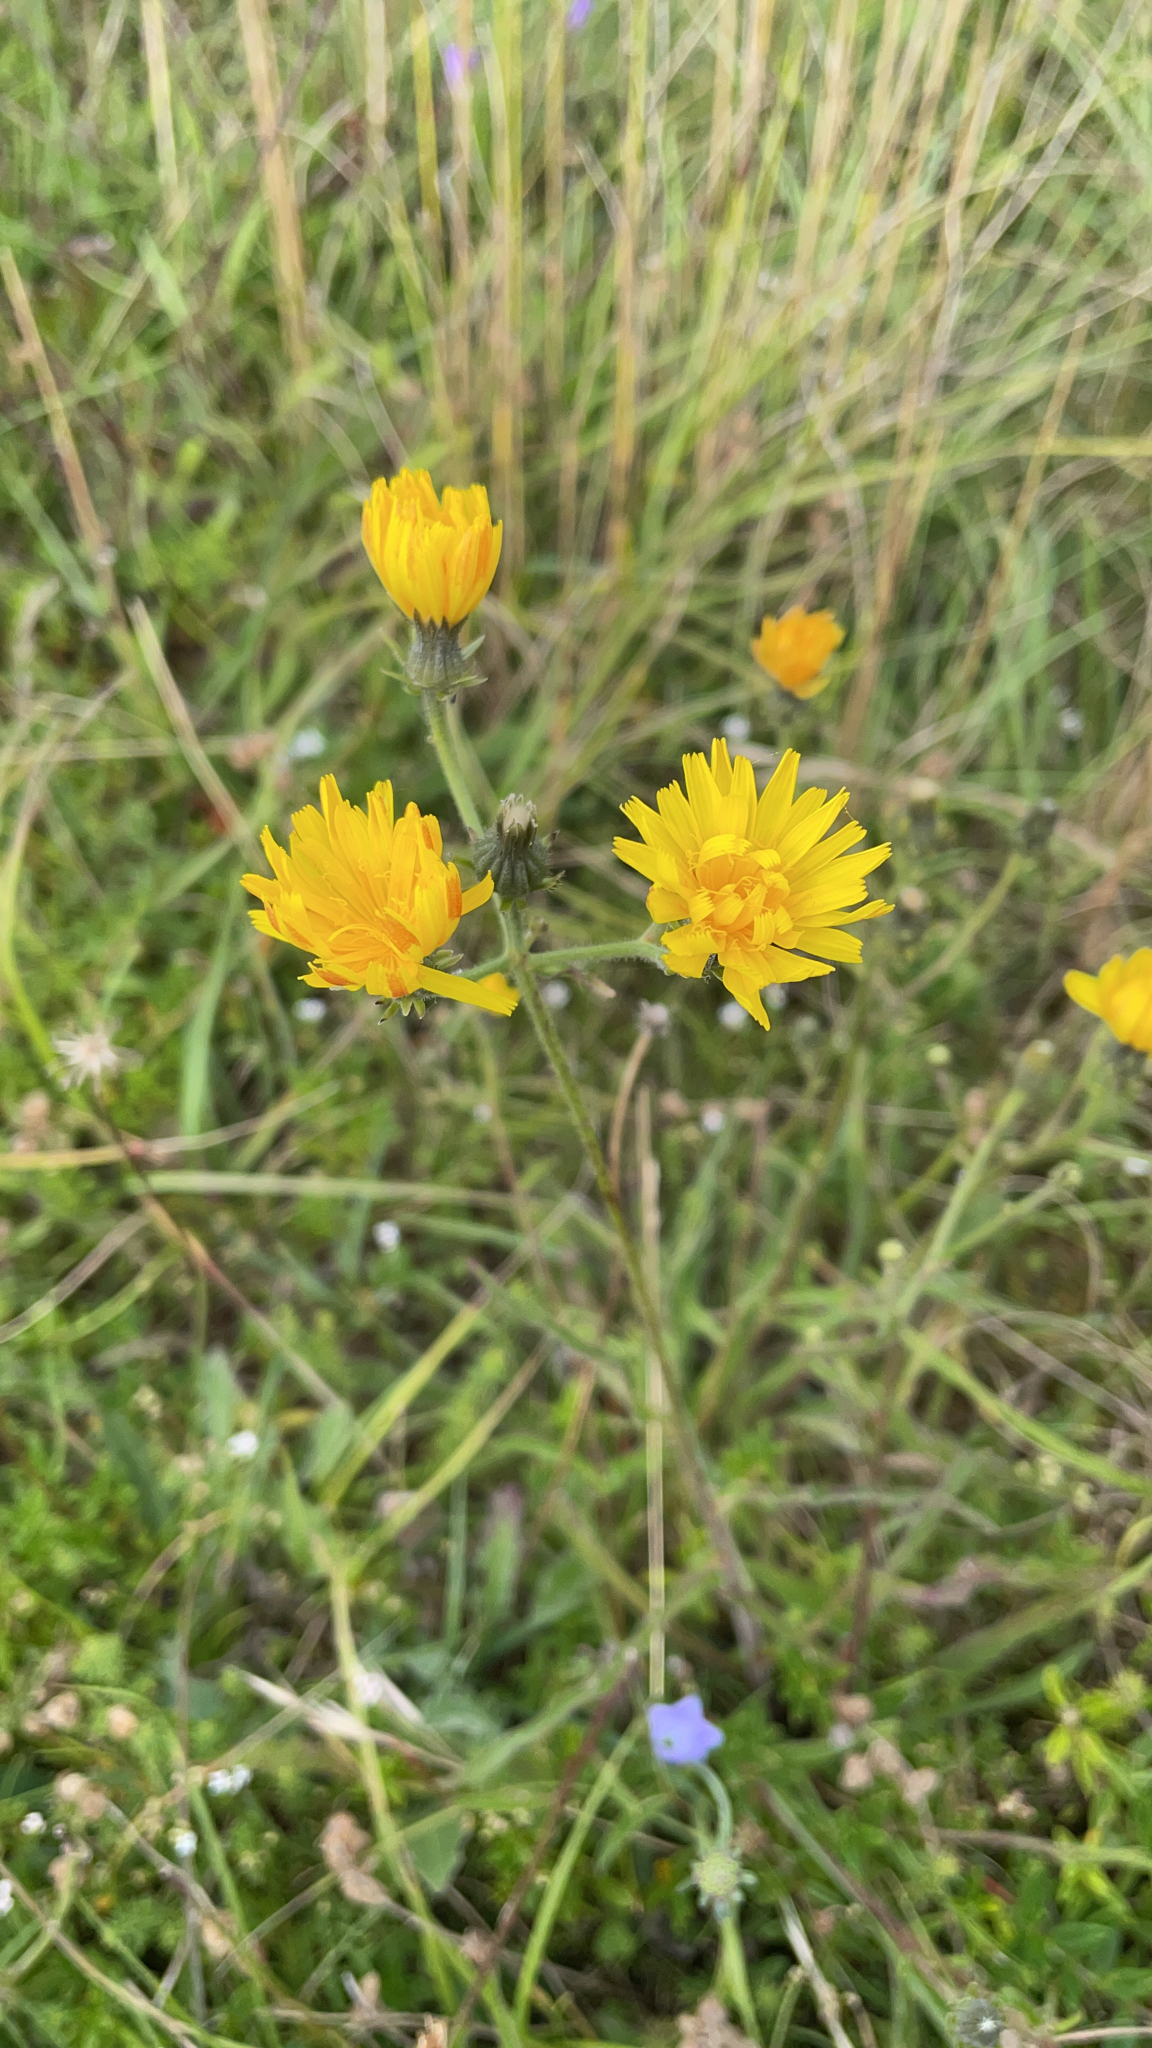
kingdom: Plantae
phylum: Tracheophyta
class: Magnoliopsida
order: Asterales
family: Asteraceae
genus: Picris
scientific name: Picris hieracioides
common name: Hawkweed oxtongue
